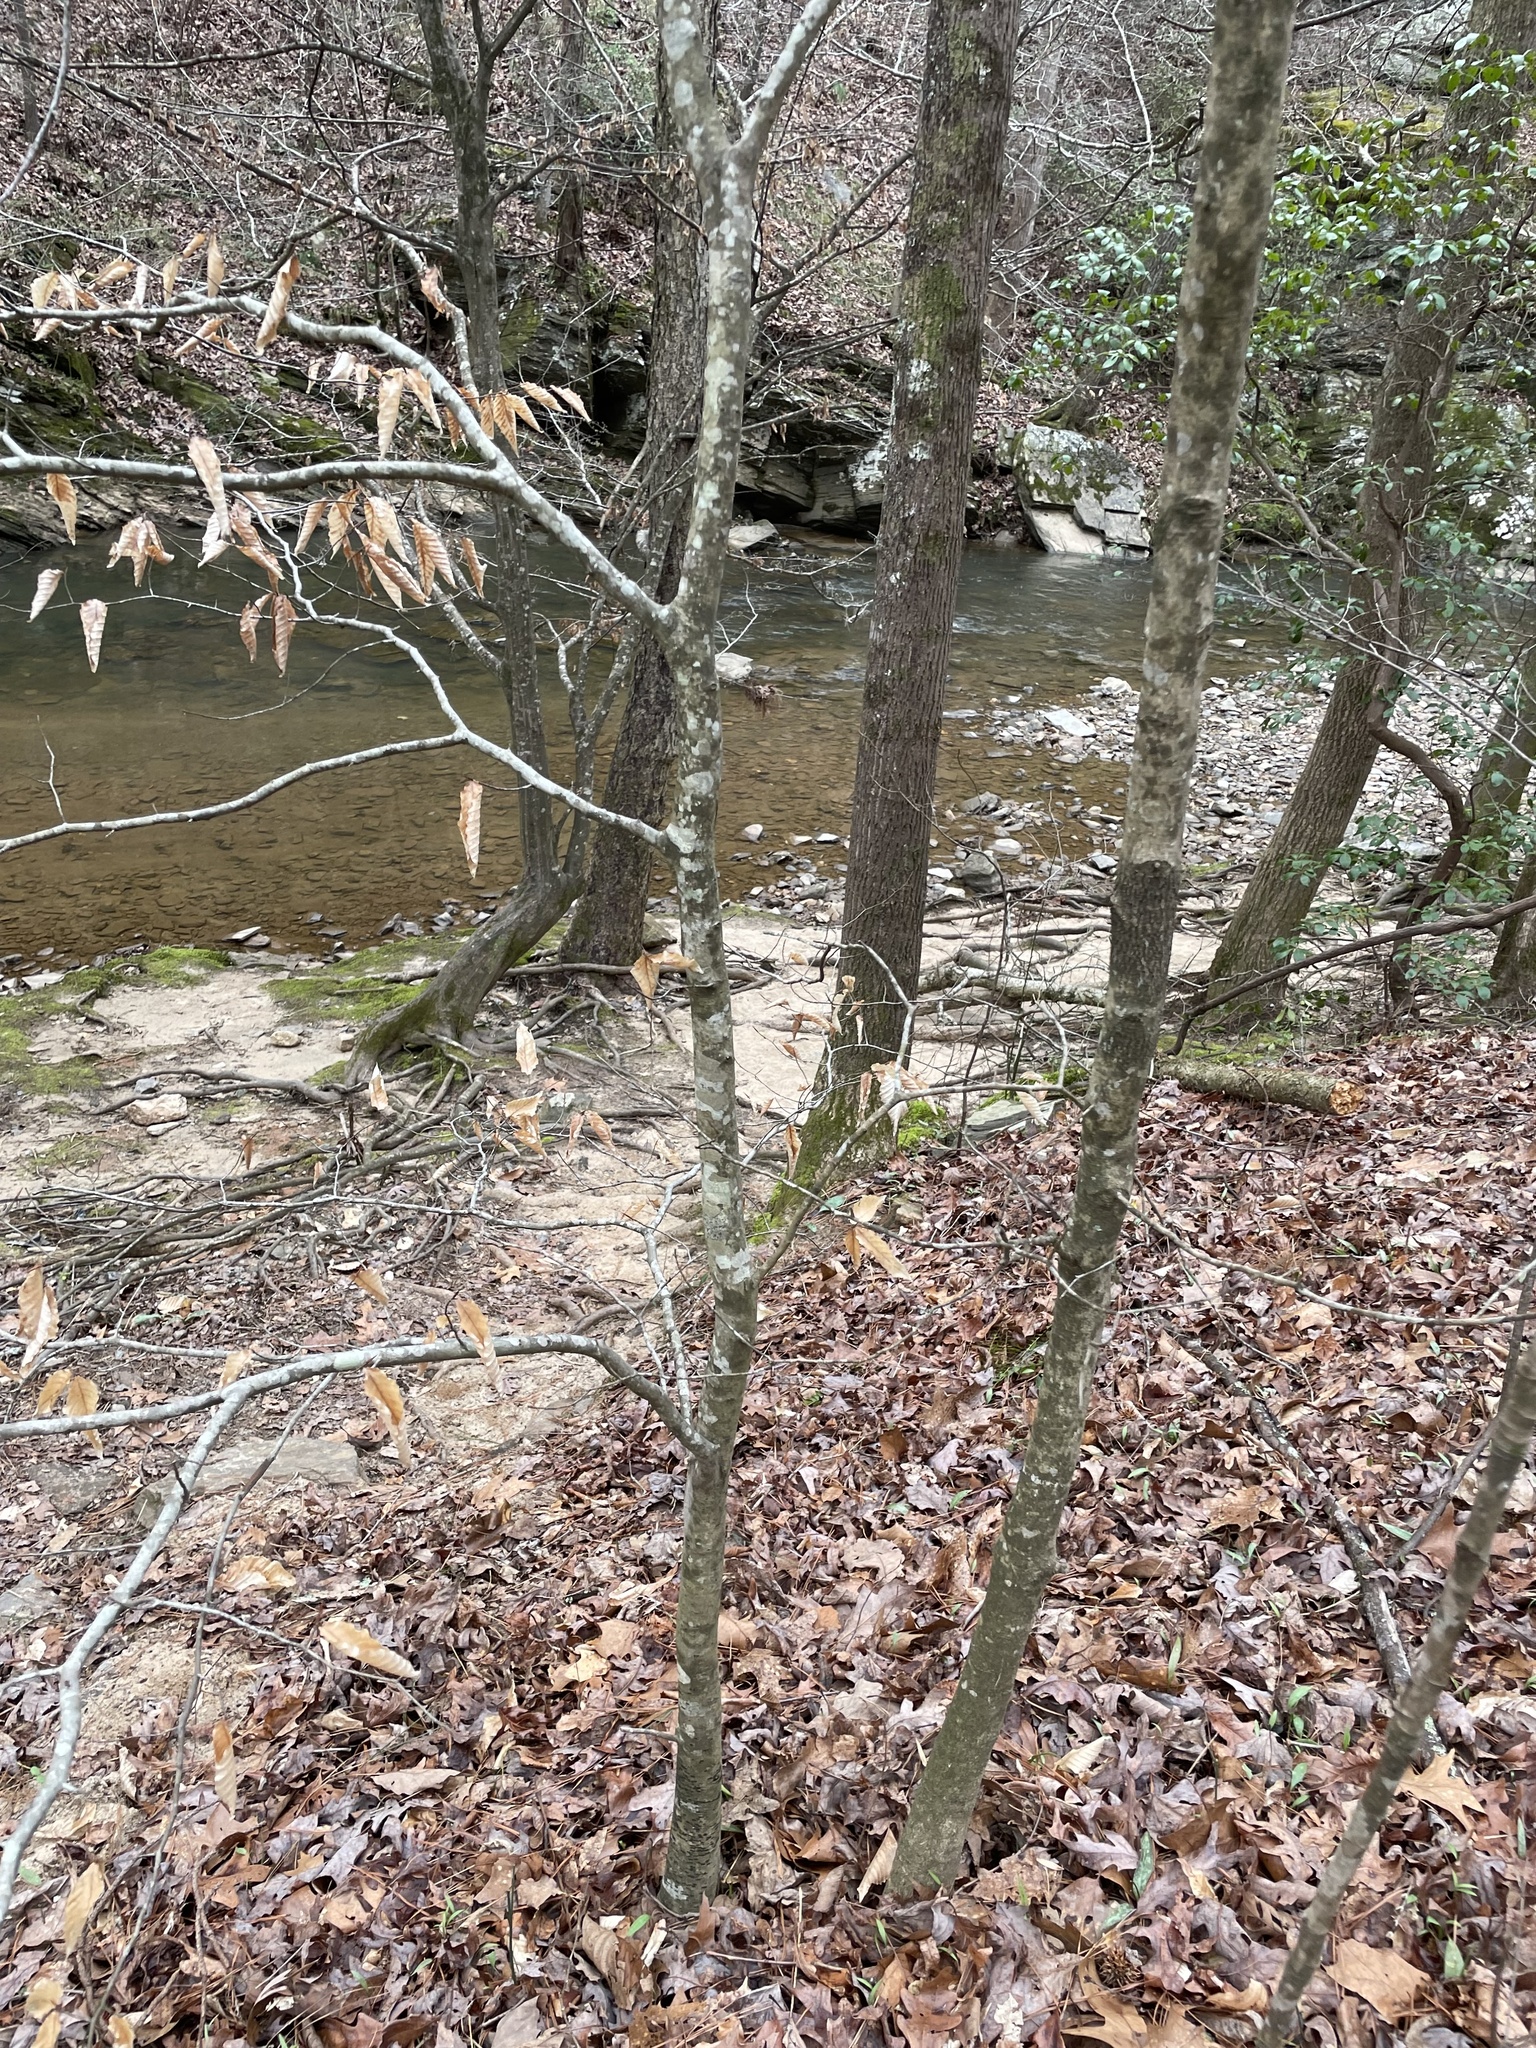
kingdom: Plantae
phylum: Tracheophyta
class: Magnoliopsida
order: Fagales
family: Fagaceae
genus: Fagus
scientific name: Fagus grandifolia
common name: American beech
